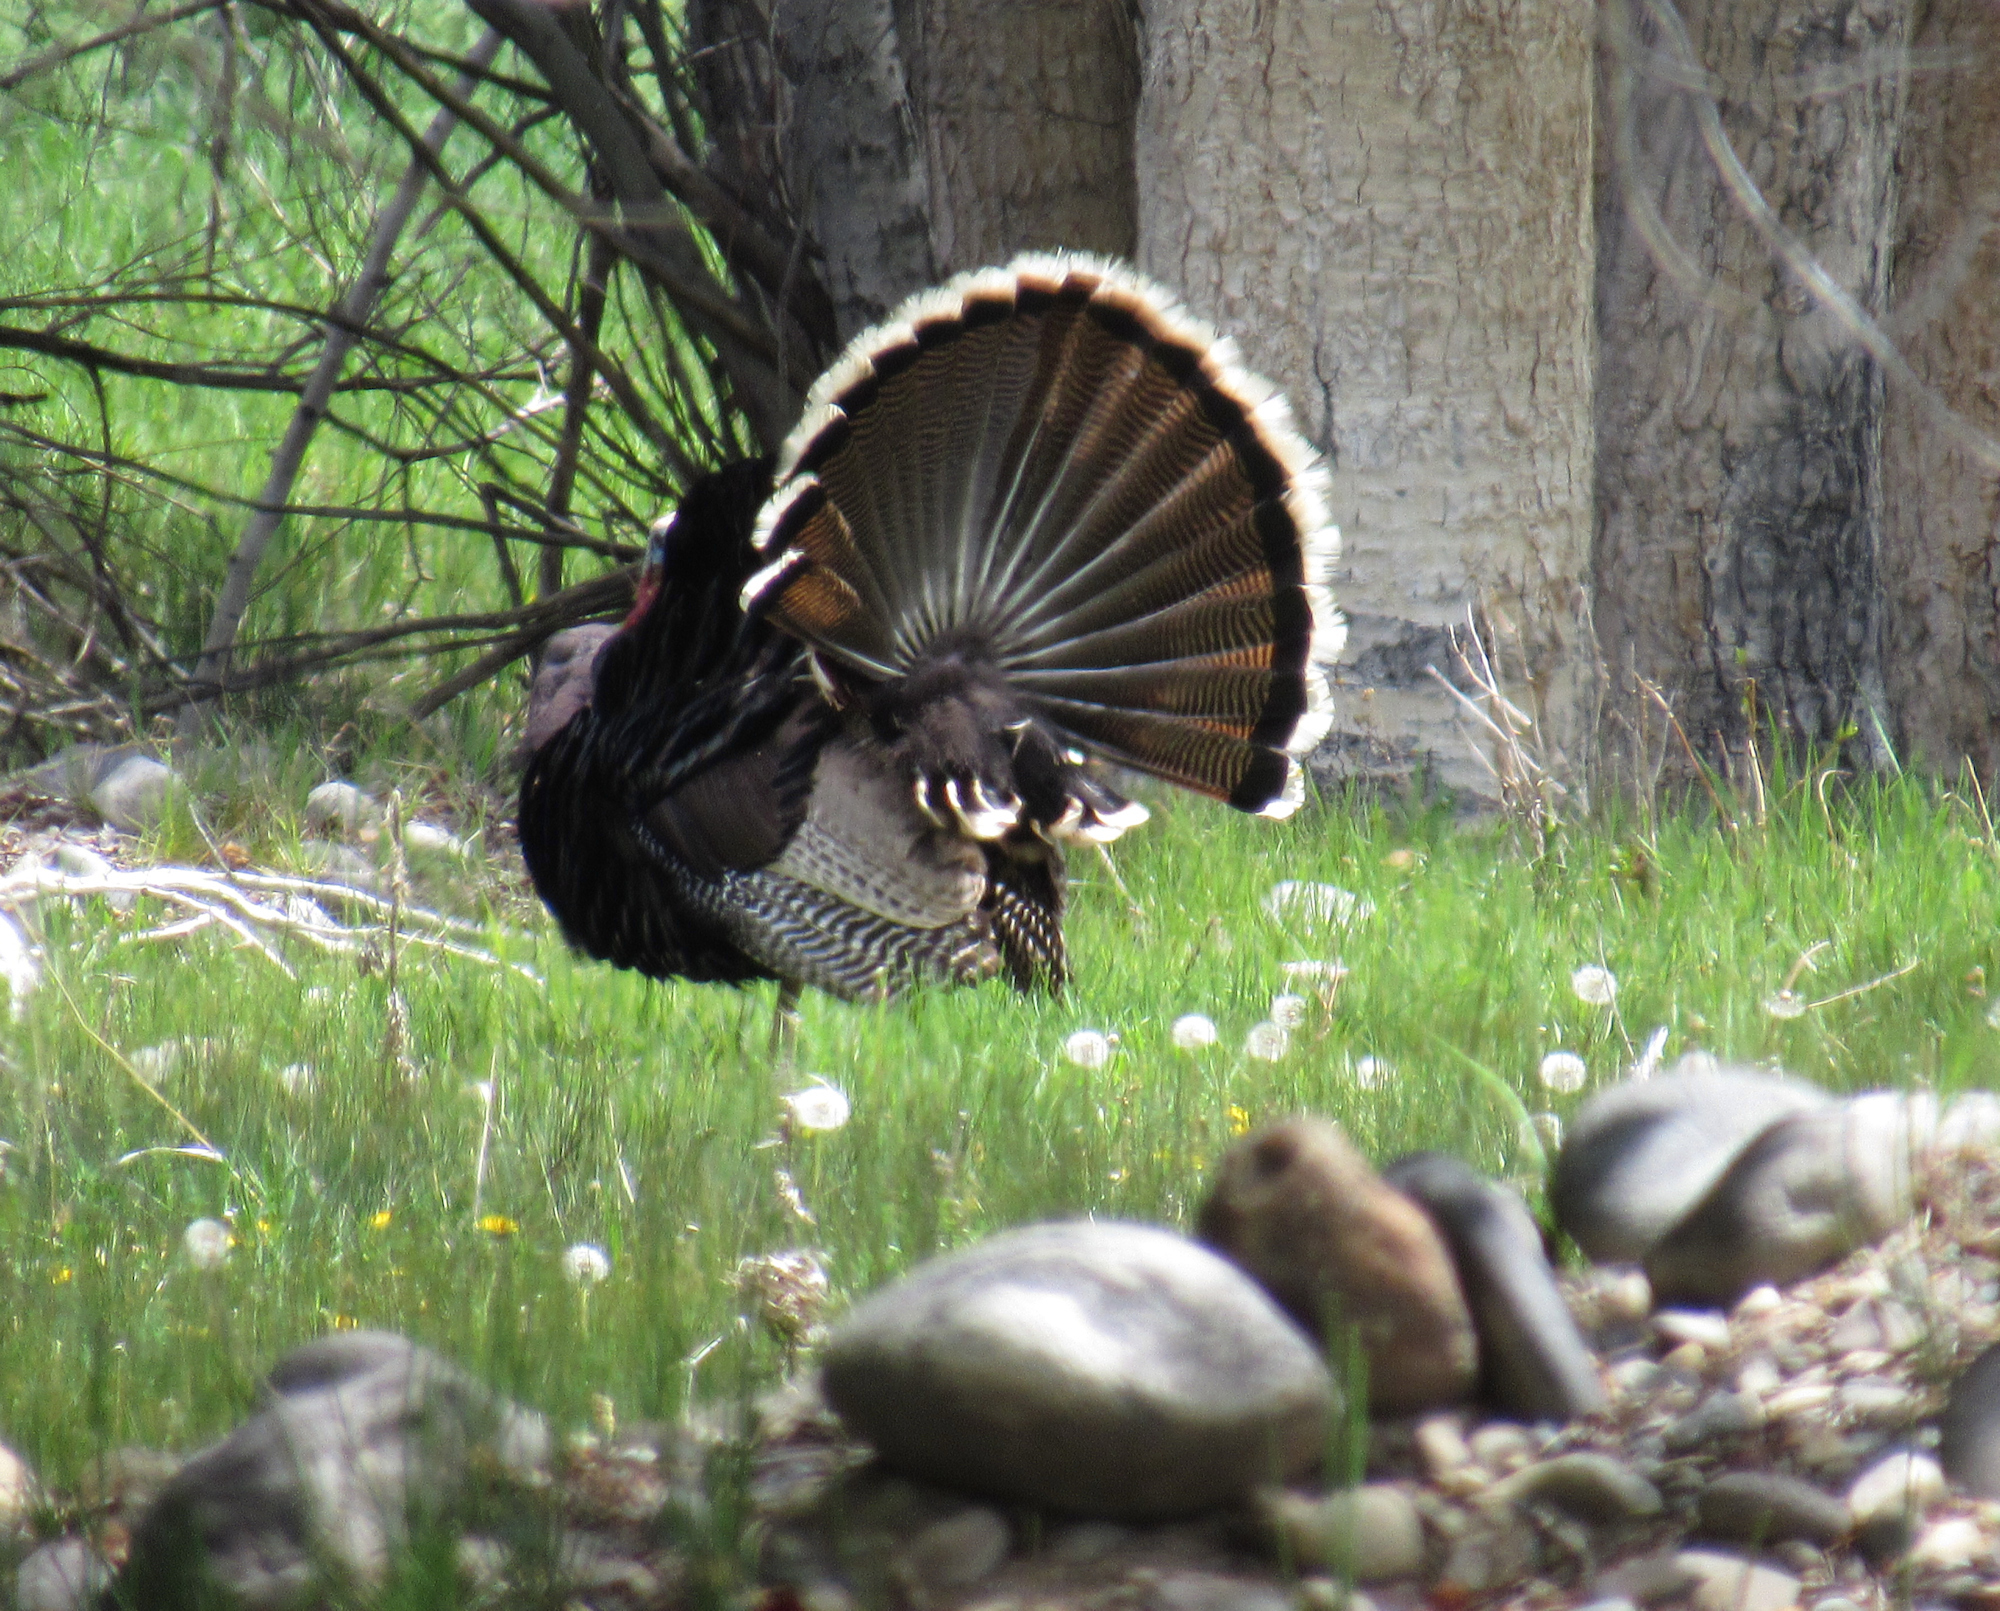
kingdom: Animalia
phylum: Chordata
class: Aves
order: Galliformes
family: Phasianidae
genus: Meleagris
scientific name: Meleagris gallopavo
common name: Wild turkey
